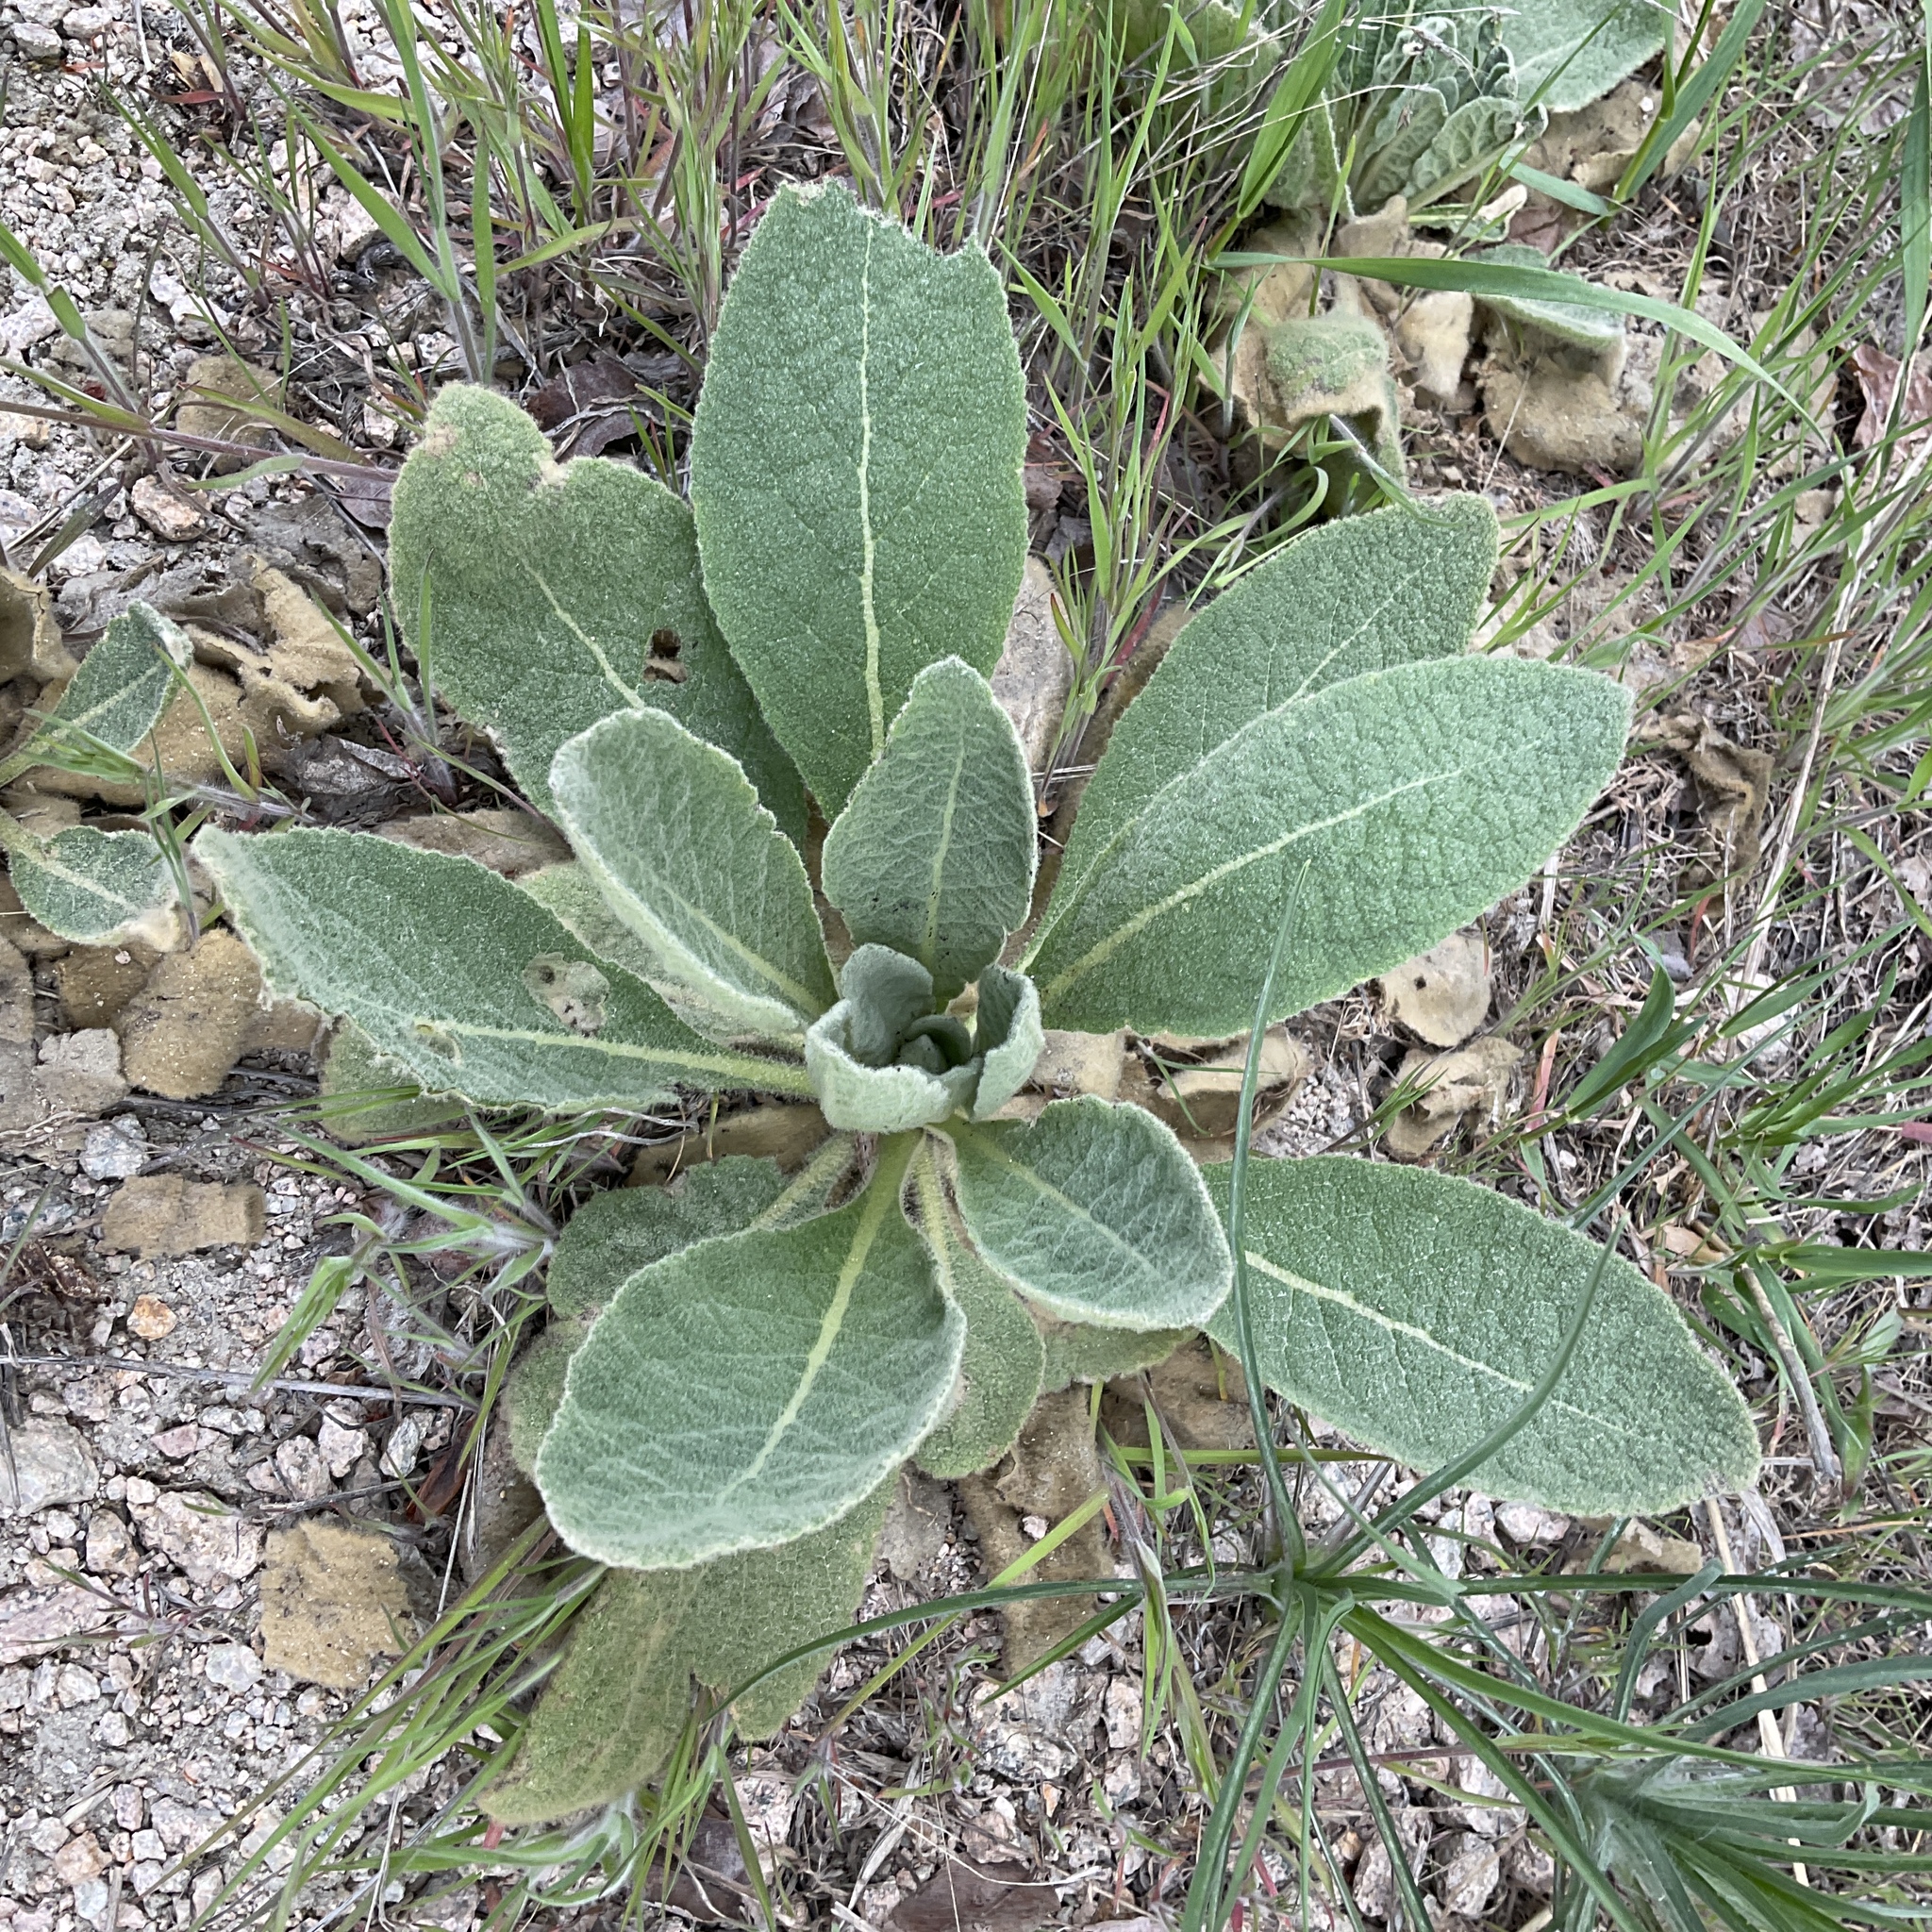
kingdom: Plantae
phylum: Tracheophyta
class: Magnoliopsida
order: Lamiales
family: Scrophulariaceae
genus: Verbascum
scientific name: Verbascum thapsus
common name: Common mullein
